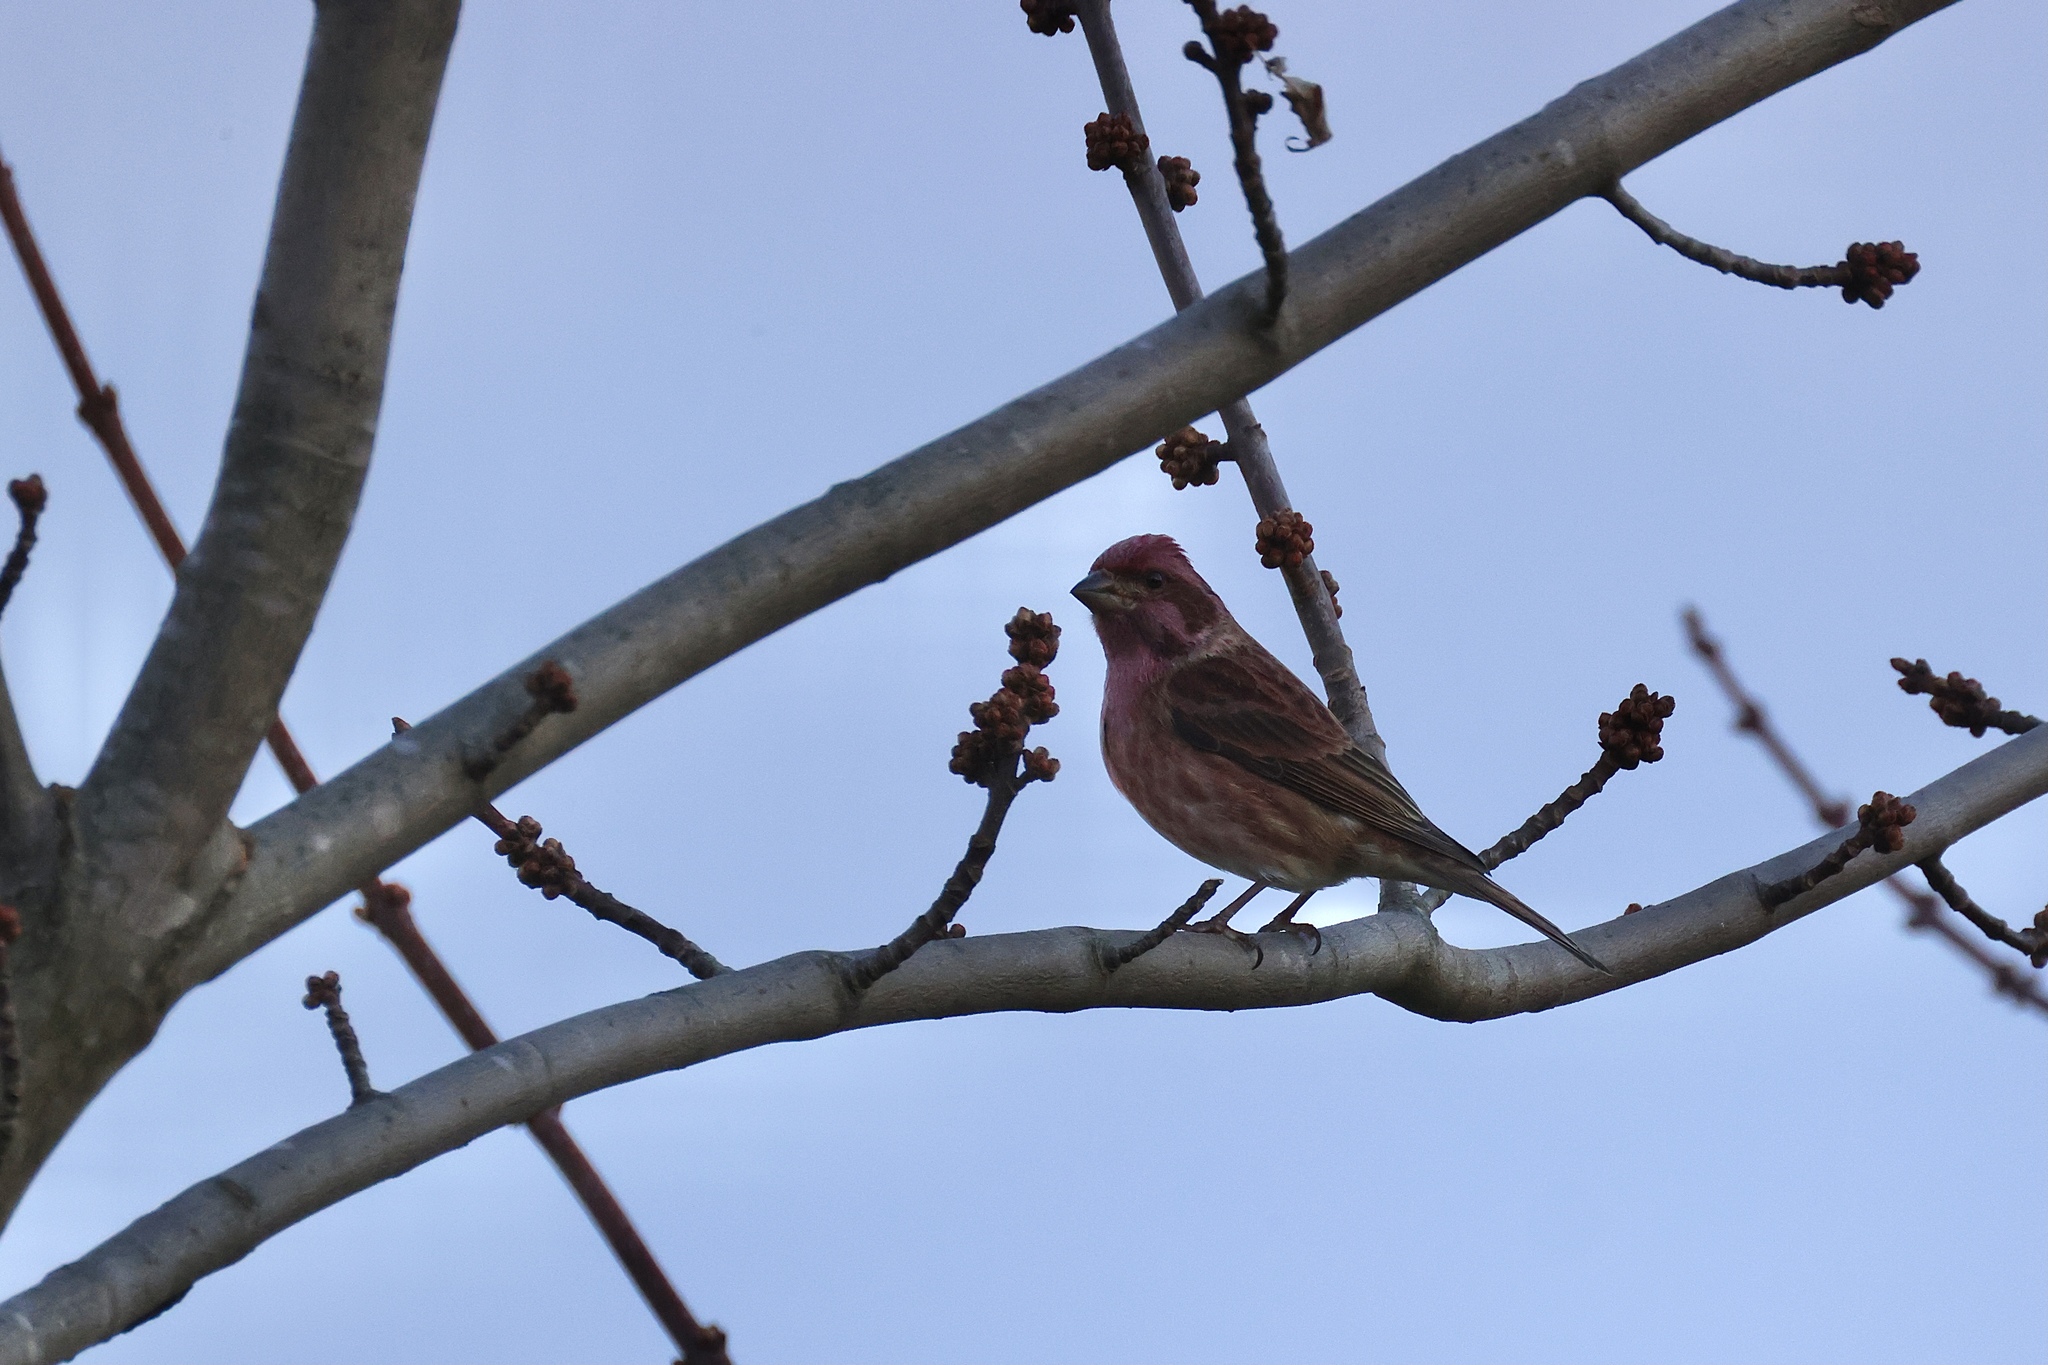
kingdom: Animalia
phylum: Chordata
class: Aves
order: Passeriformes
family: Fringillidae
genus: Haemorhous
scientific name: Haemorhous purpureus
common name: Purple finch
